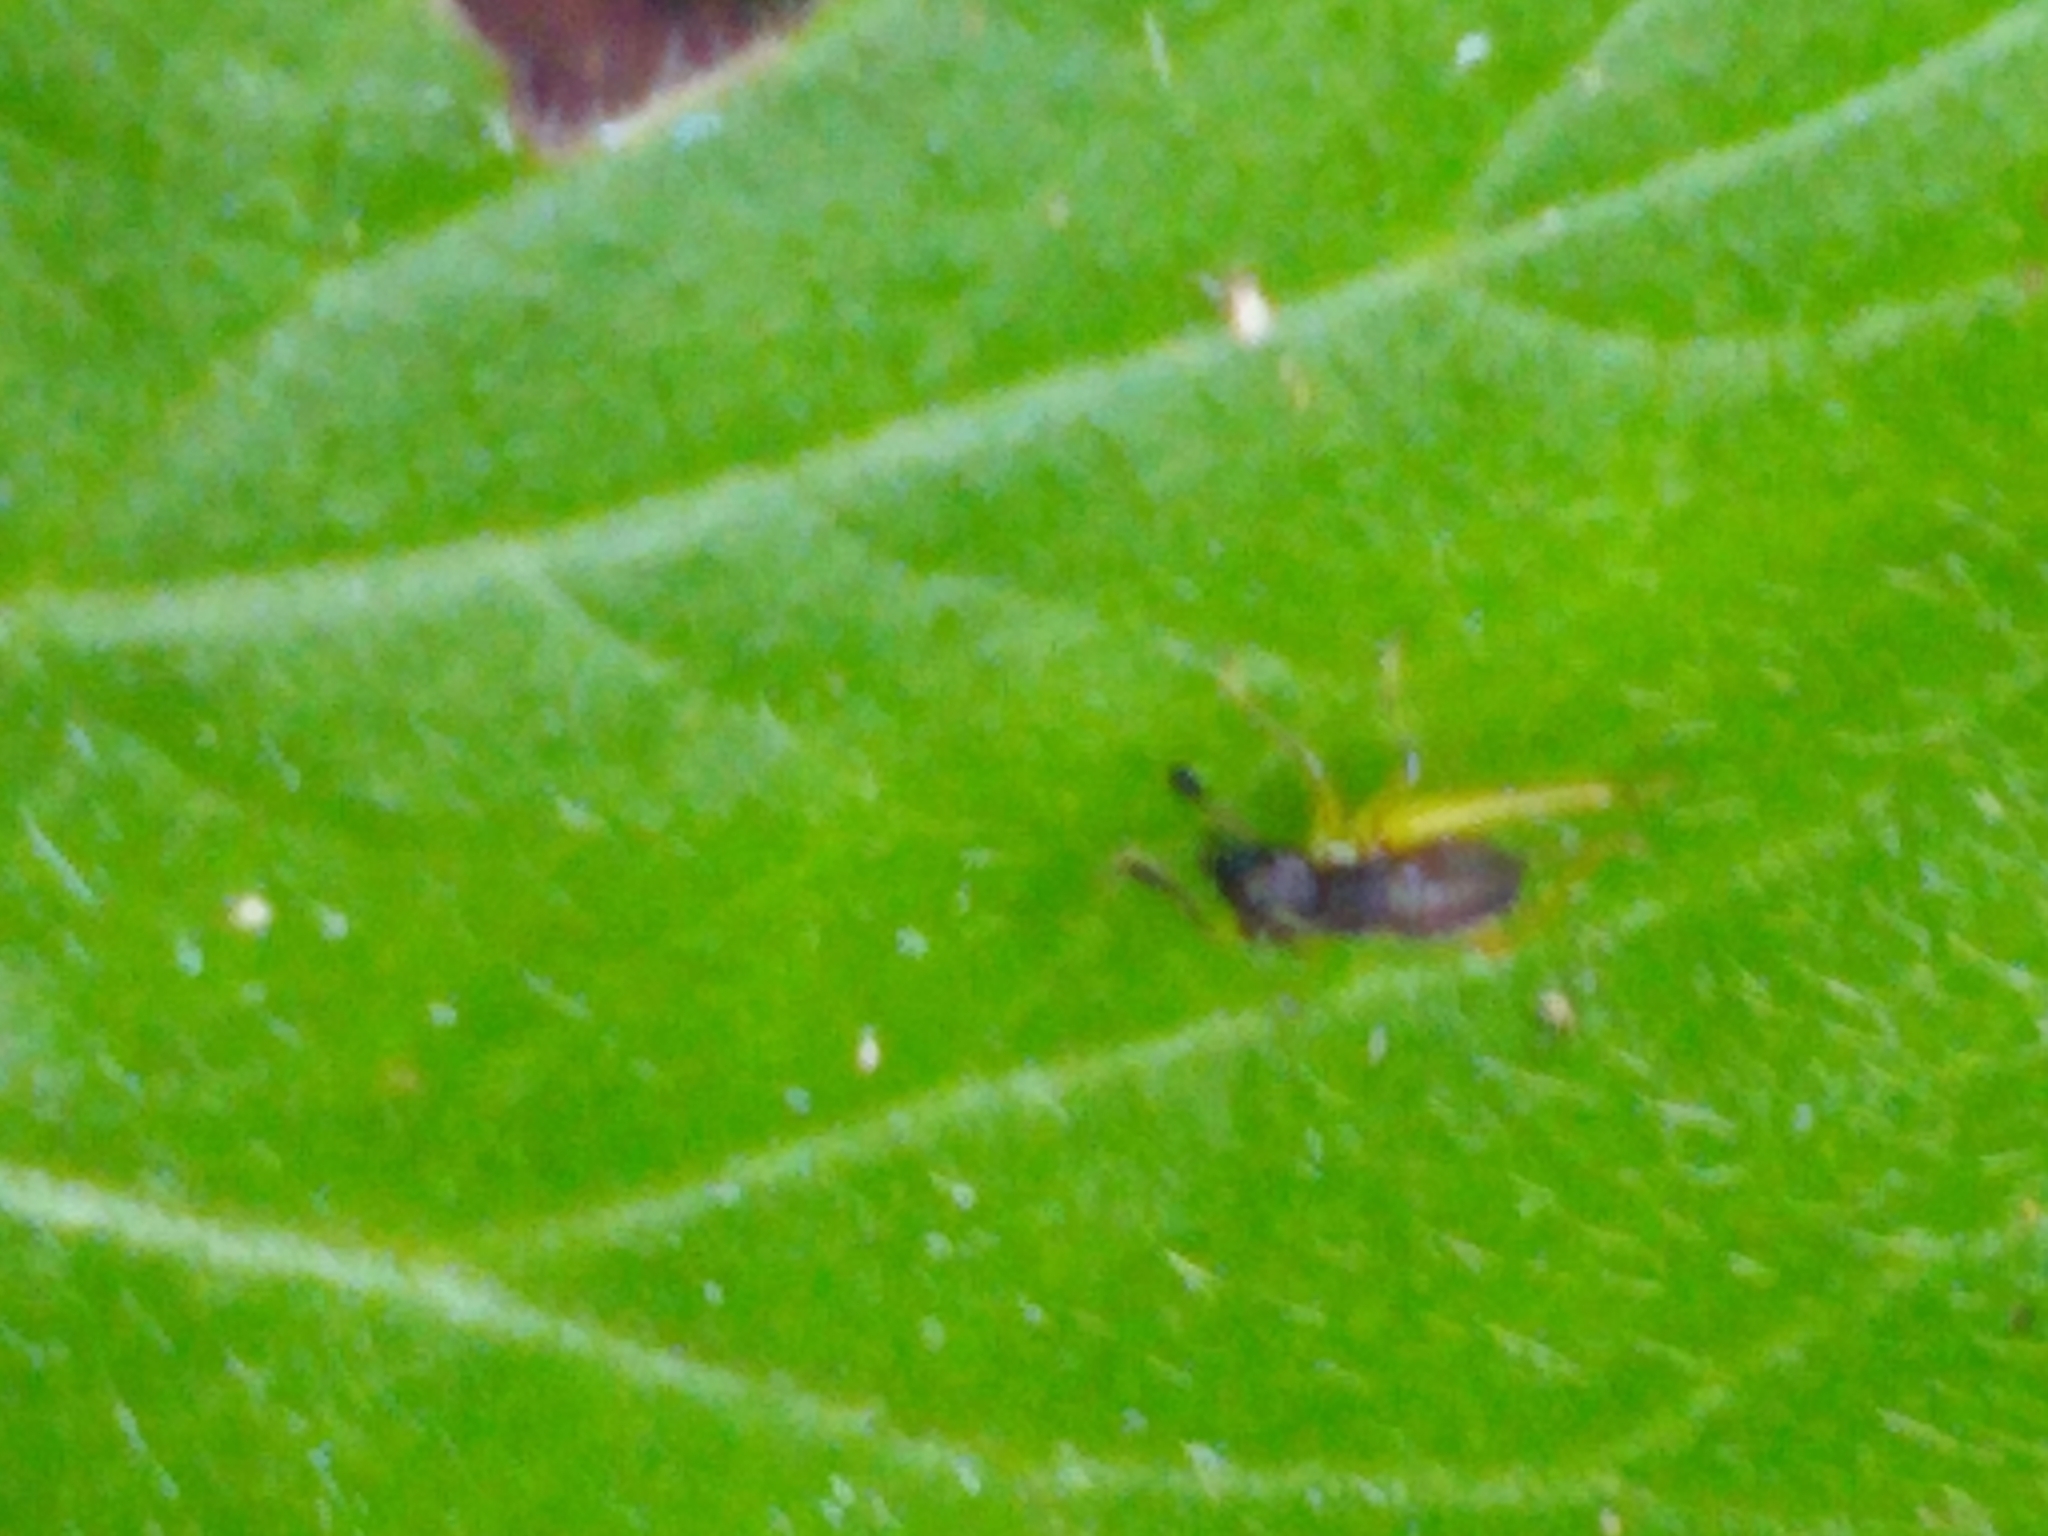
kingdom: Animalia
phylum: Arthropoda
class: Insecta
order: Orthoptera
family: Trigonidiidae
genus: Phyllopalpus
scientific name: Phyllopalpus pulchellus
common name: Handsome trig
